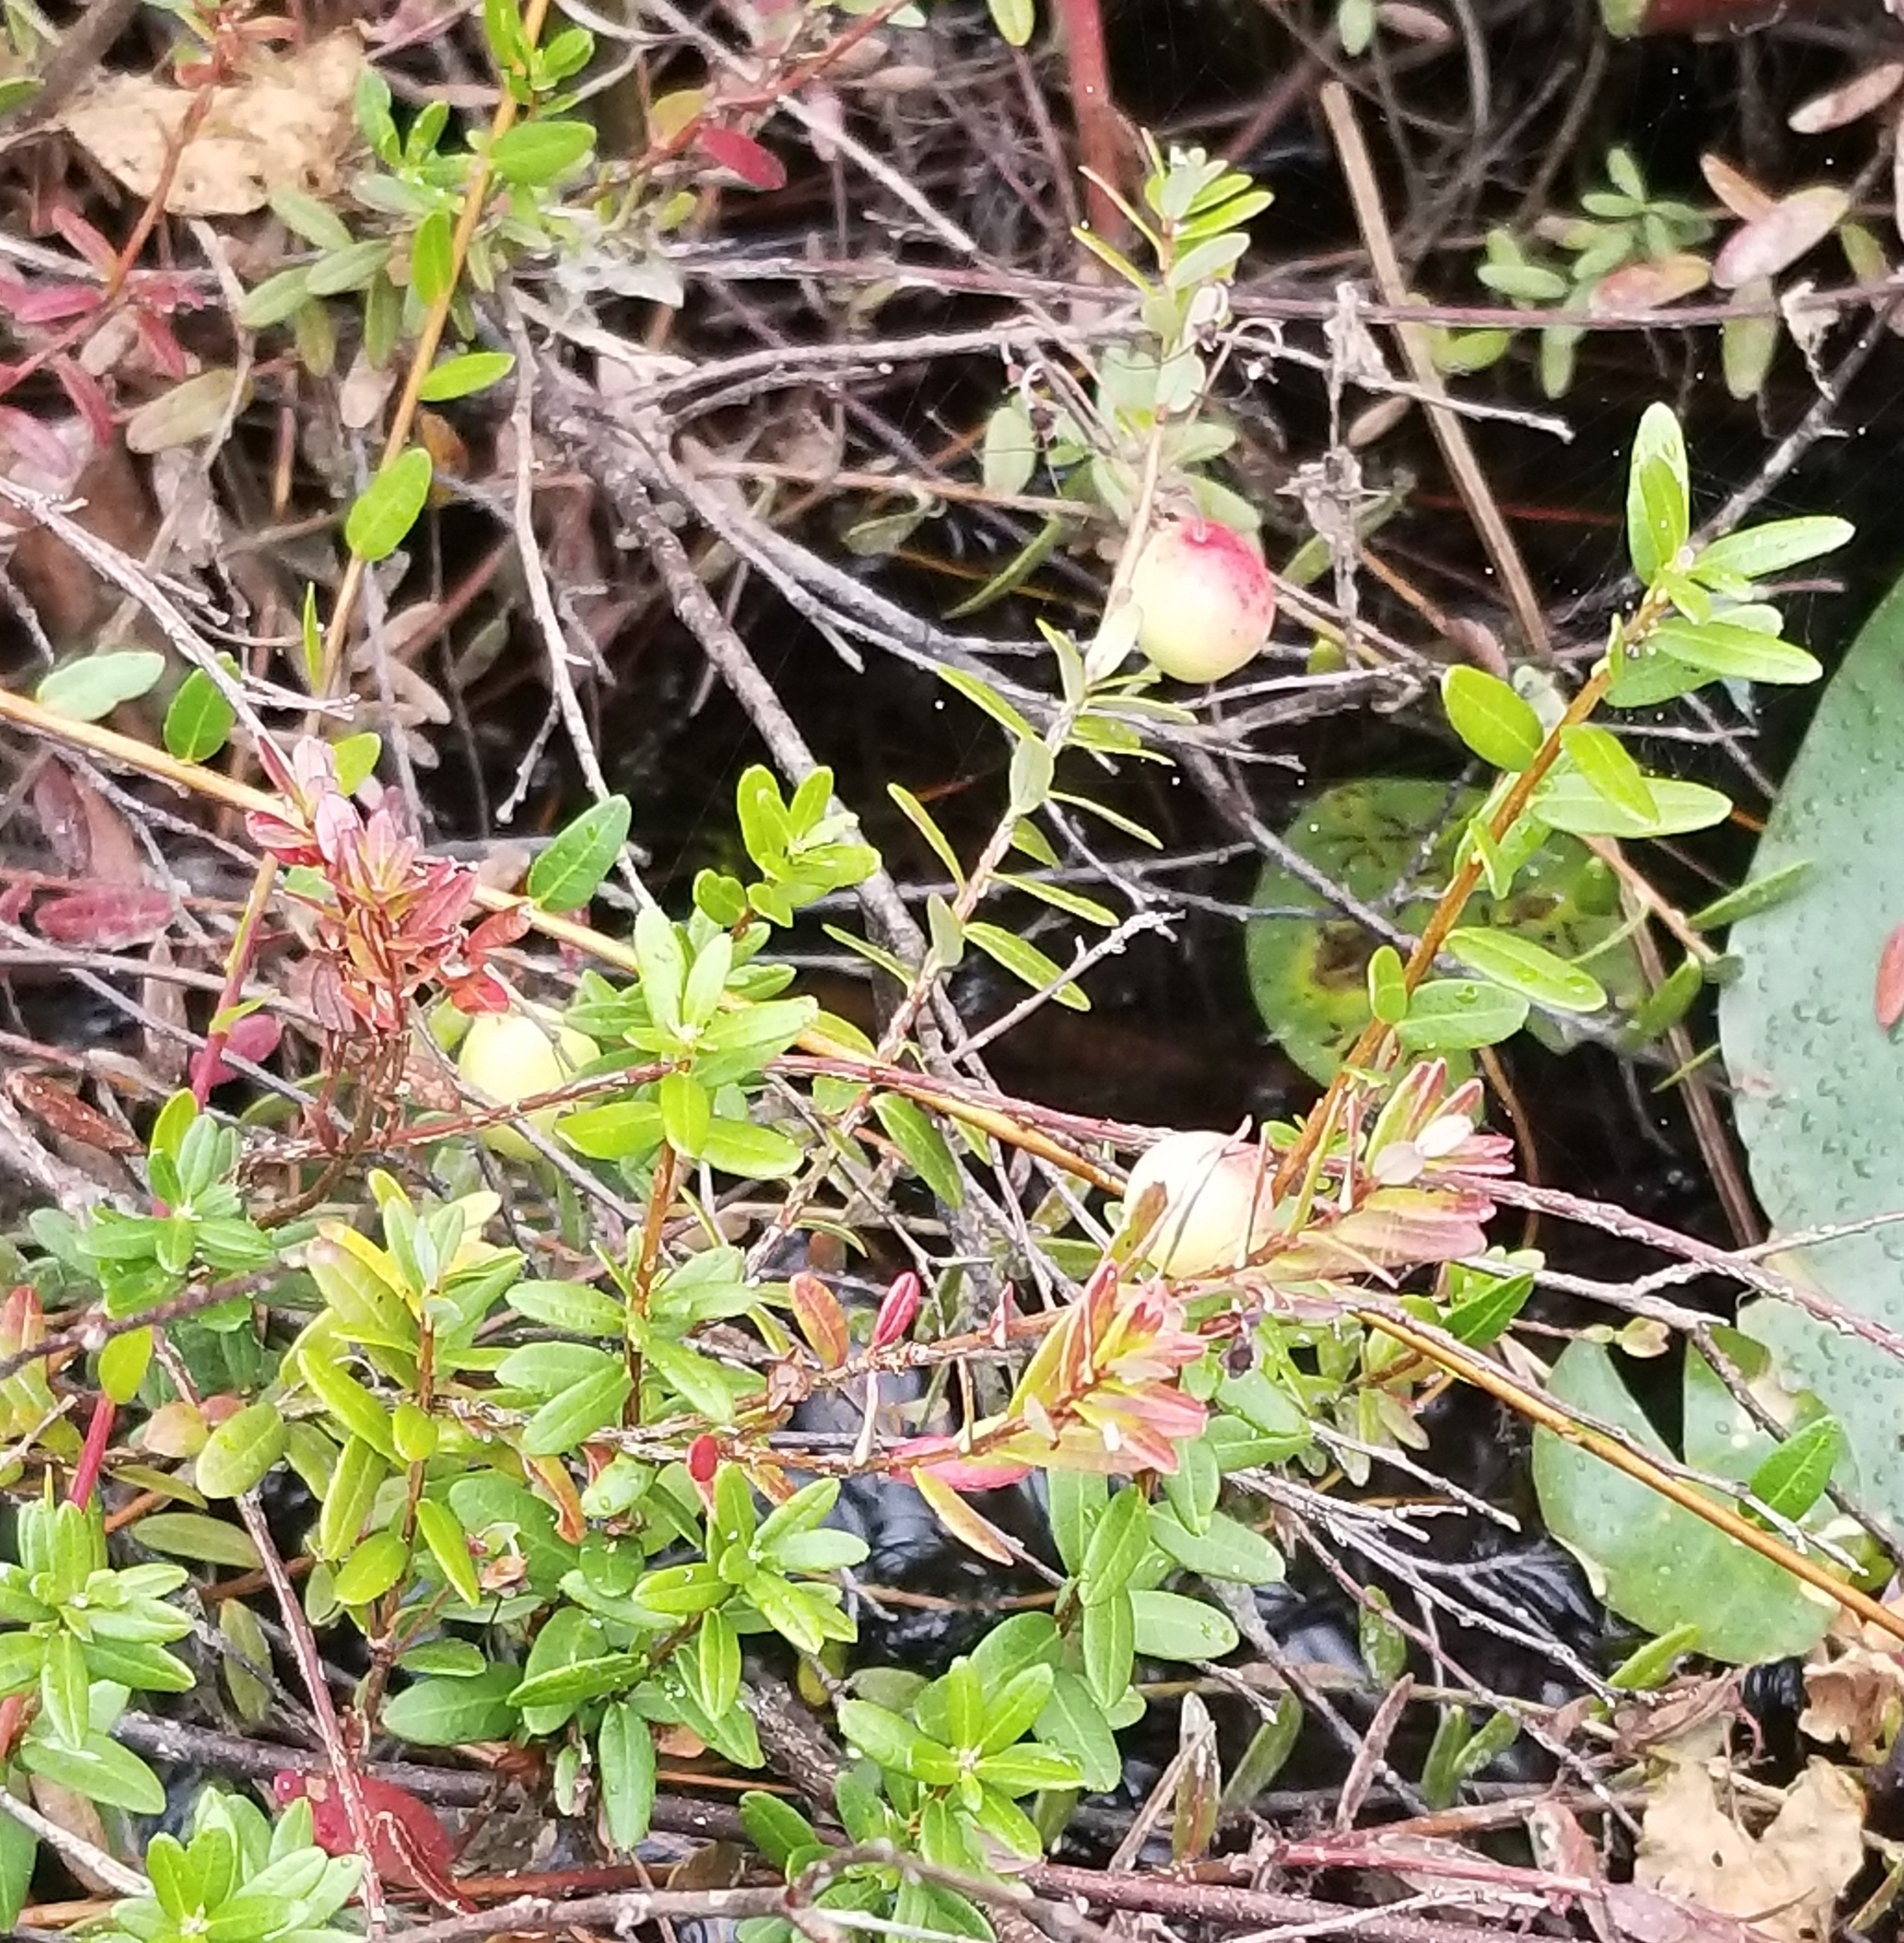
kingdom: Plantae
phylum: Tracheophyta
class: Magnoliopsida
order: Ericales
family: Ericaceae
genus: Vaccinium
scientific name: Vaccinium macrocarpon
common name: American cranberry
